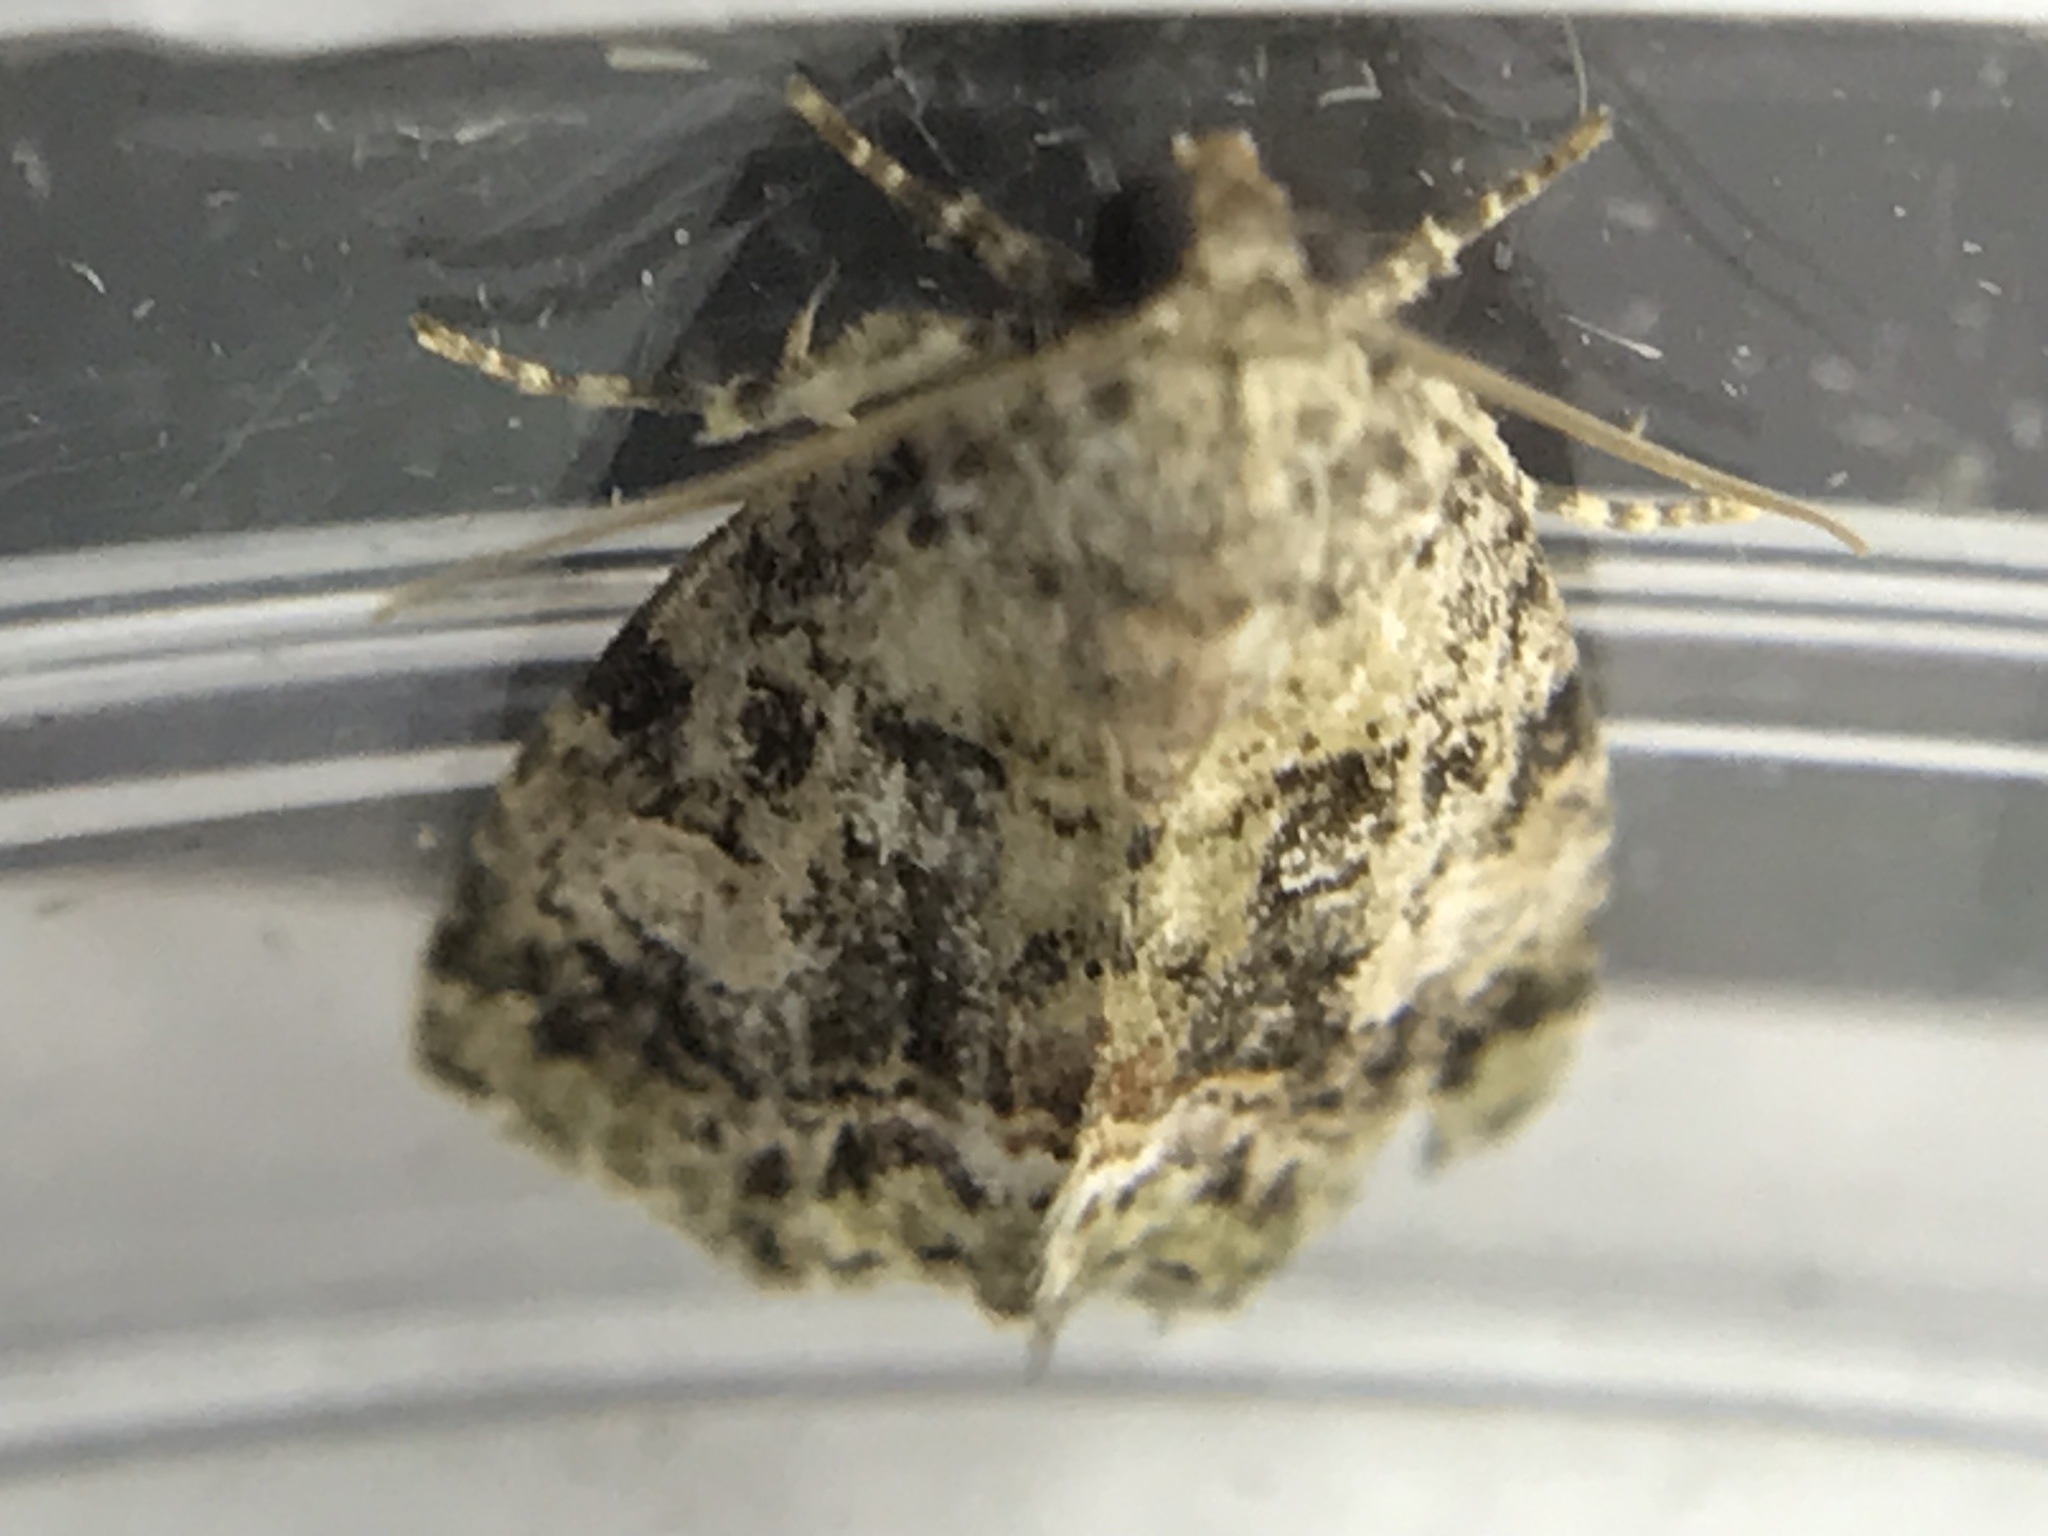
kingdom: Animalia
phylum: Arthropoda
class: Insecta
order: Lepidoptera
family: Noctuidae
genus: Lithacodia
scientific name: Lithacodia musta
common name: Small mossy glyph
